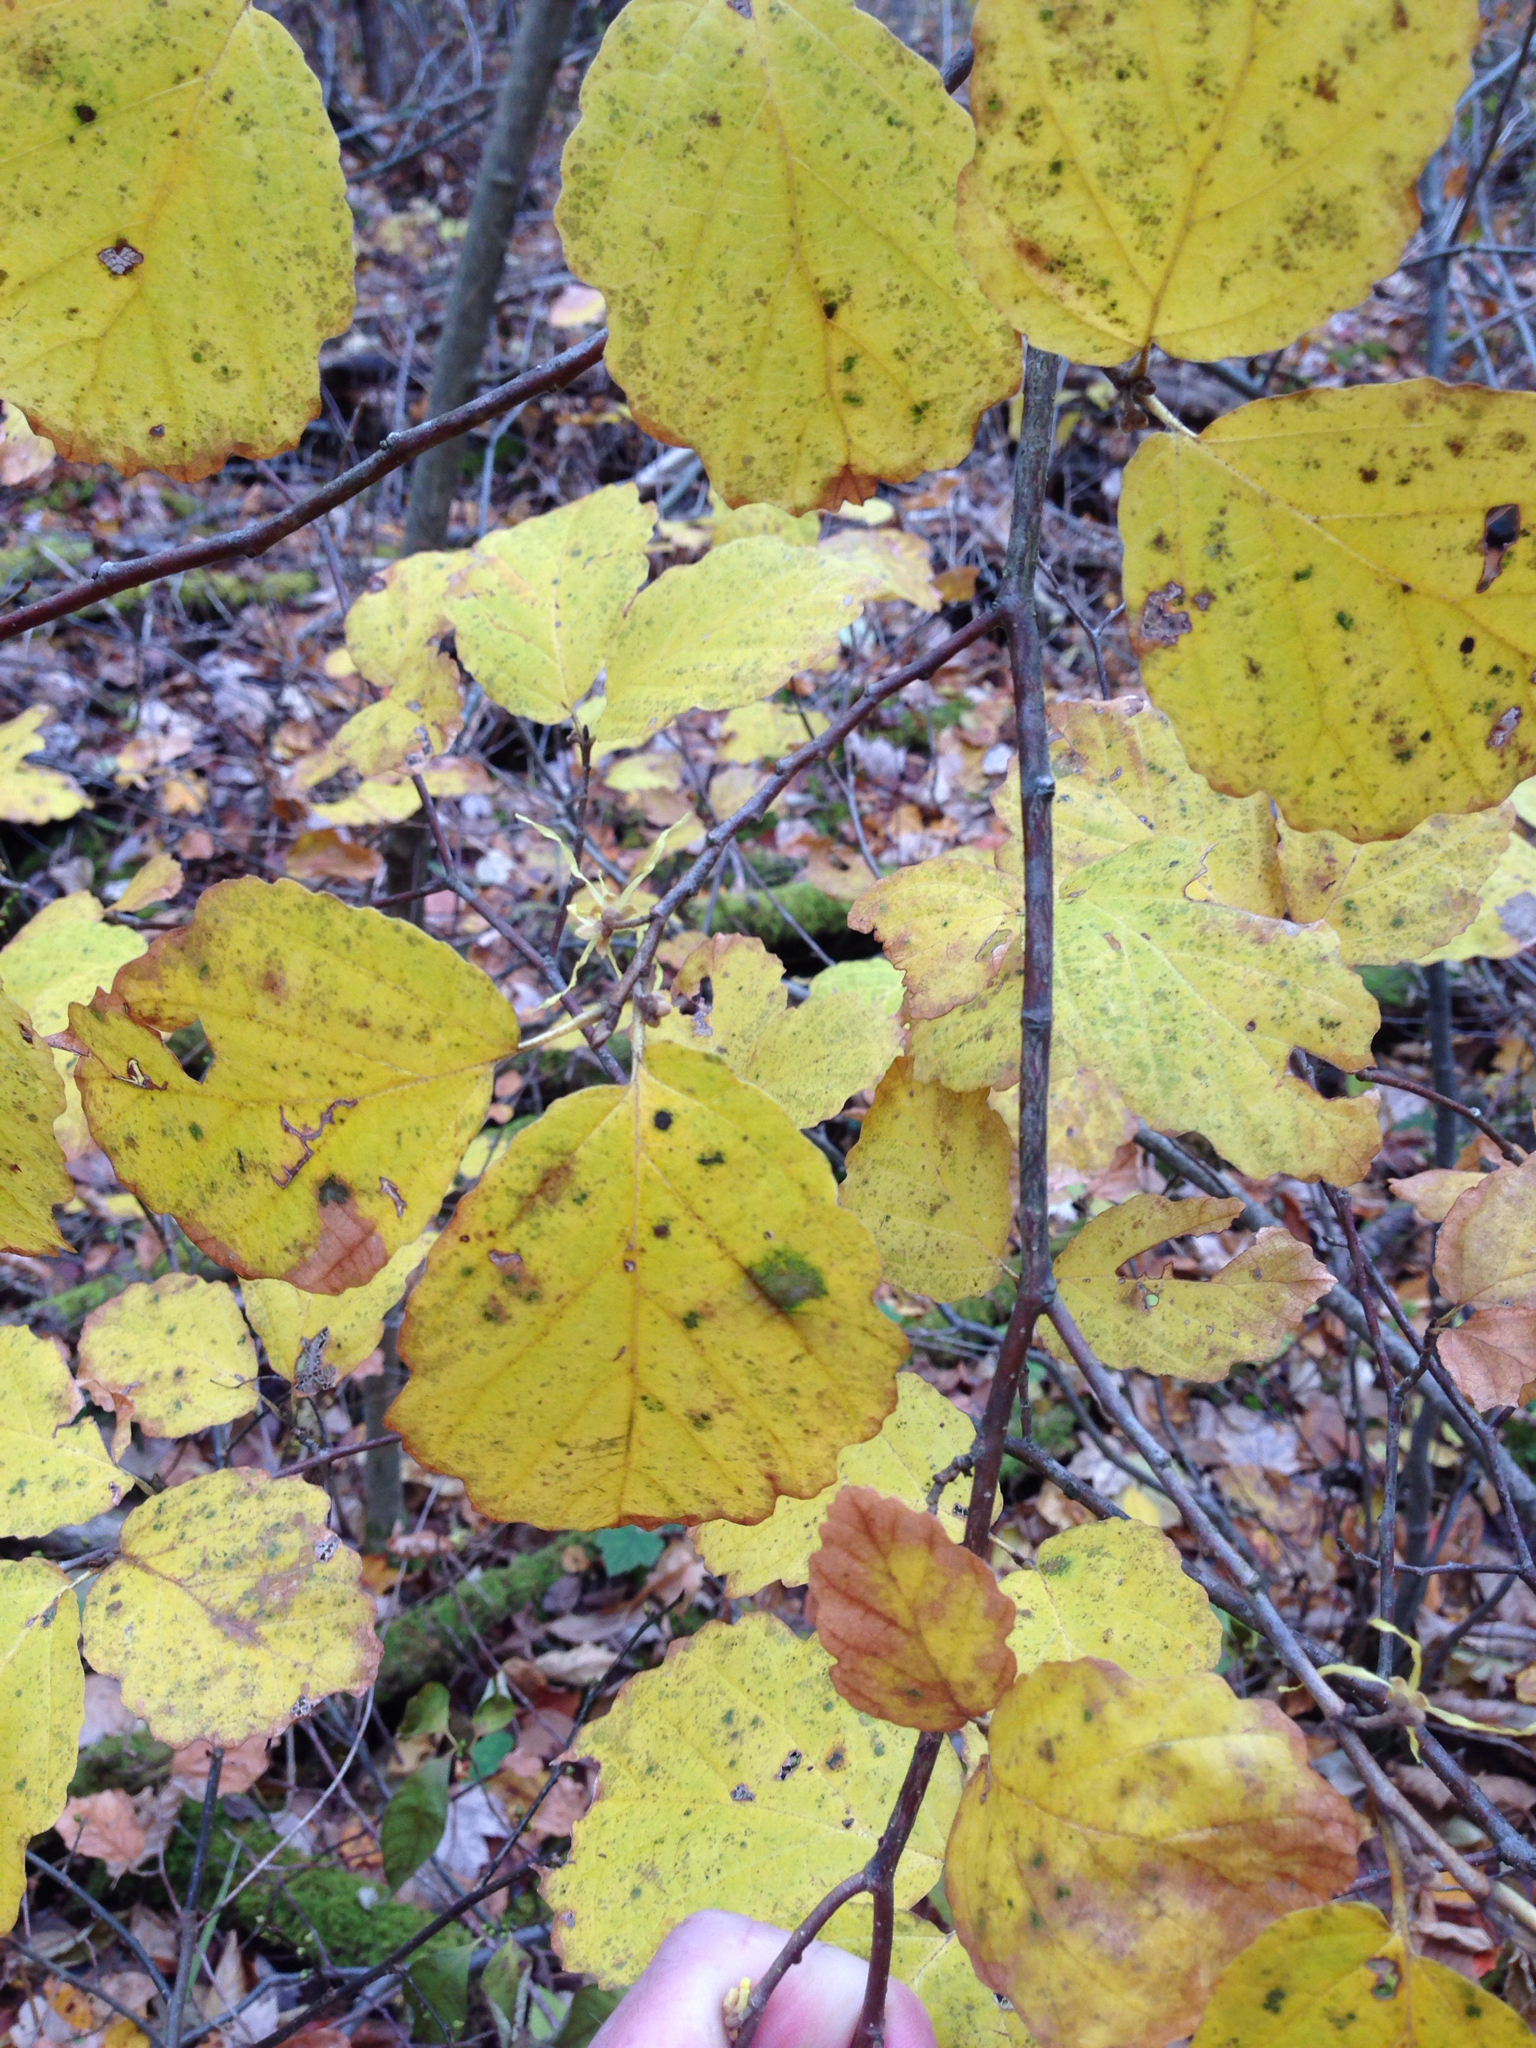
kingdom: Plantae
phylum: Tracheophyta
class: Magnoliopsida
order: Saxifragales
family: Hamamelidaceae
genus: Hamamelis
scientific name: Hamamelis virginiana
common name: Witch-hazel
